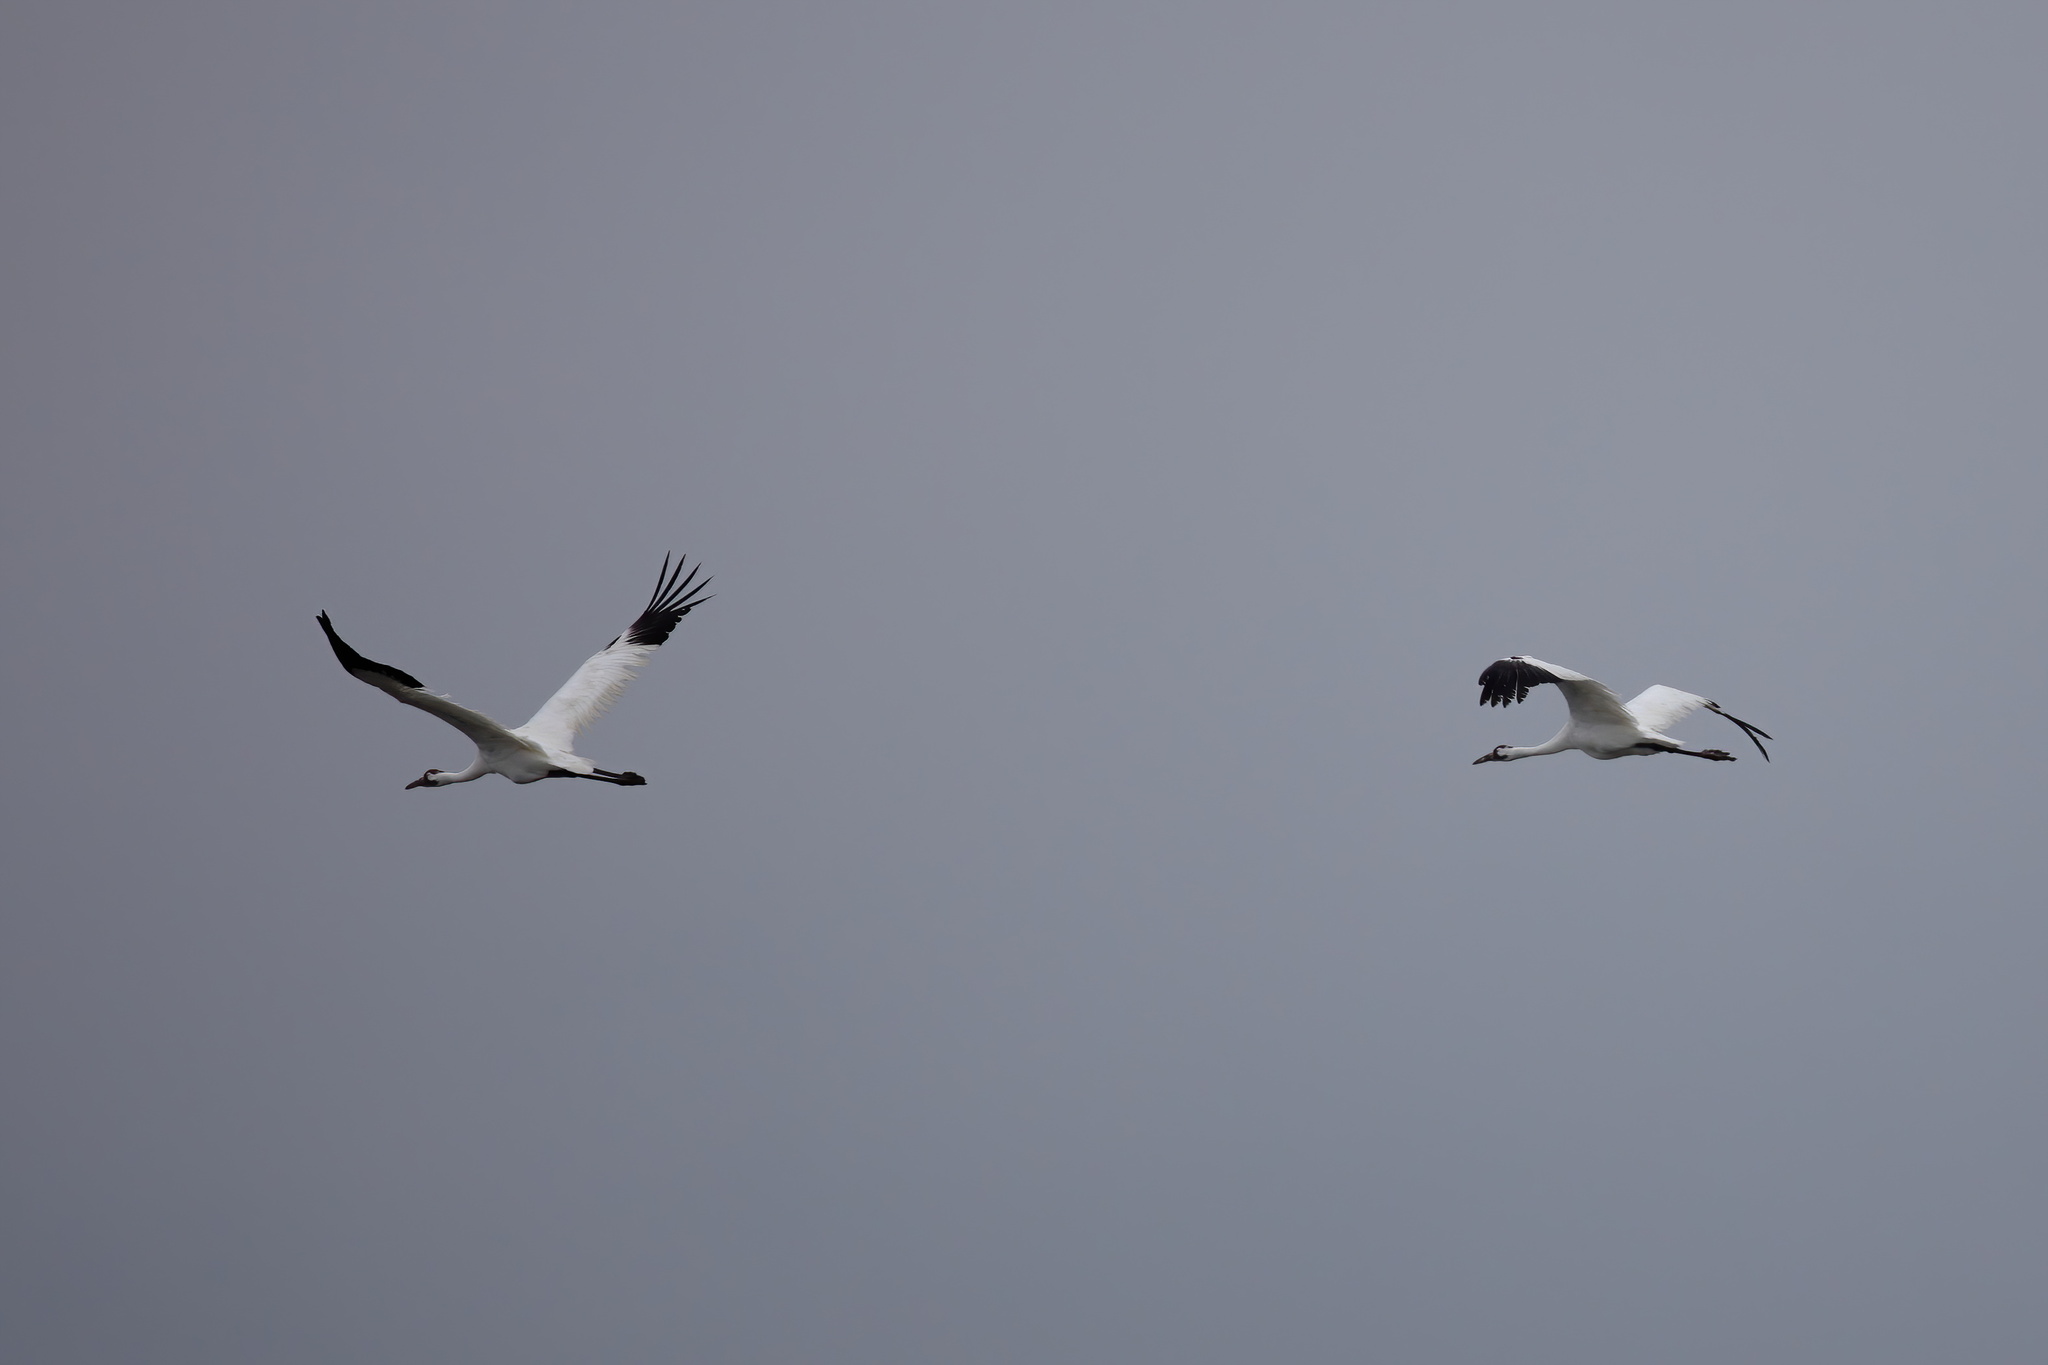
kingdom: Animalia
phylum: Chordata
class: Aves
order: Gruiformes
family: Gruidae
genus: Grus
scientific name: Grus americana
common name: Whooping crane
